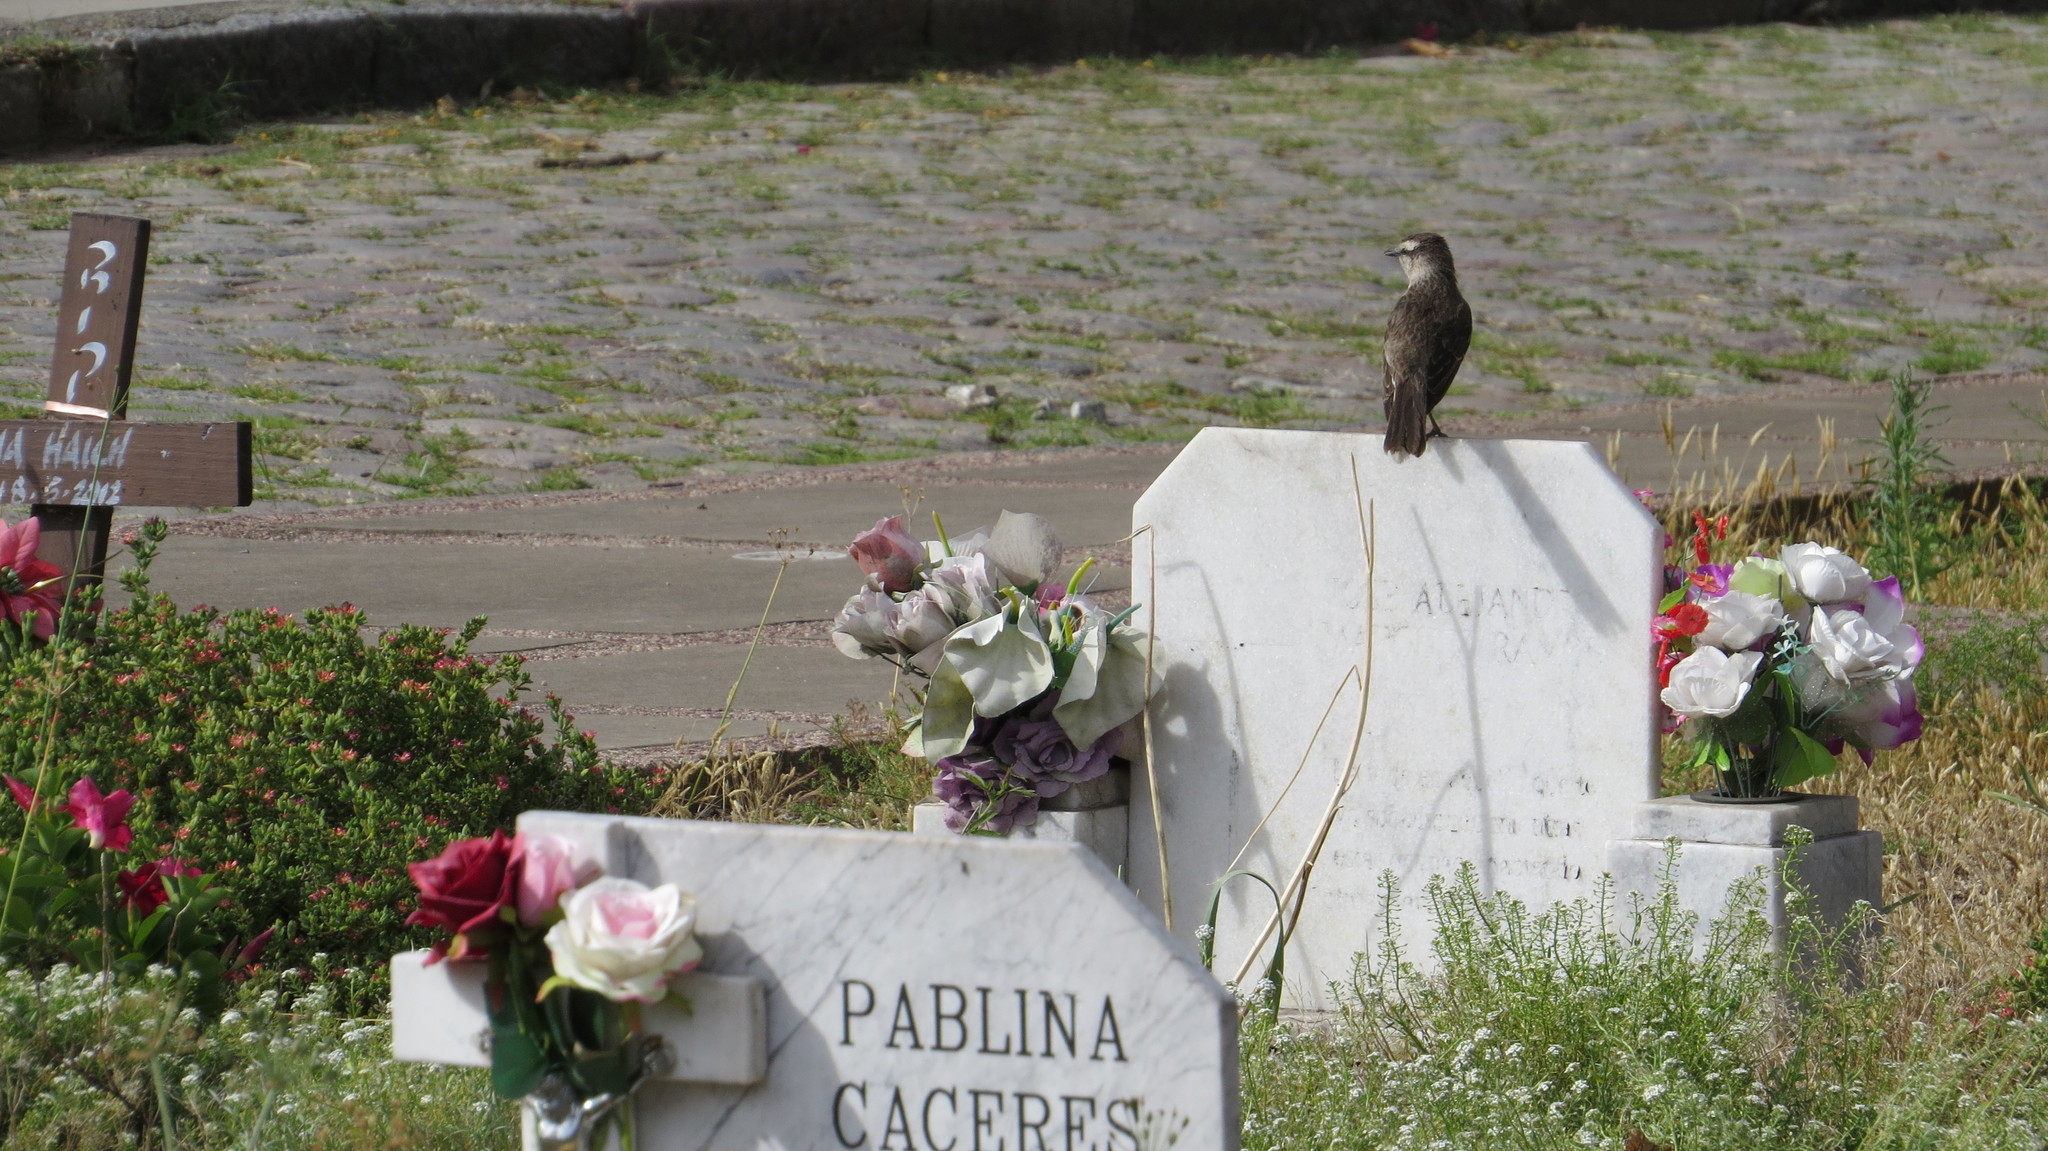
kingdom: Animalia
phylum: Chordata
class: Aves
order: Passeriformes
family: Mimidae
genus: Mimus
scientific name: Mimus saturninus
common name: Chalk-browed mockingbird
